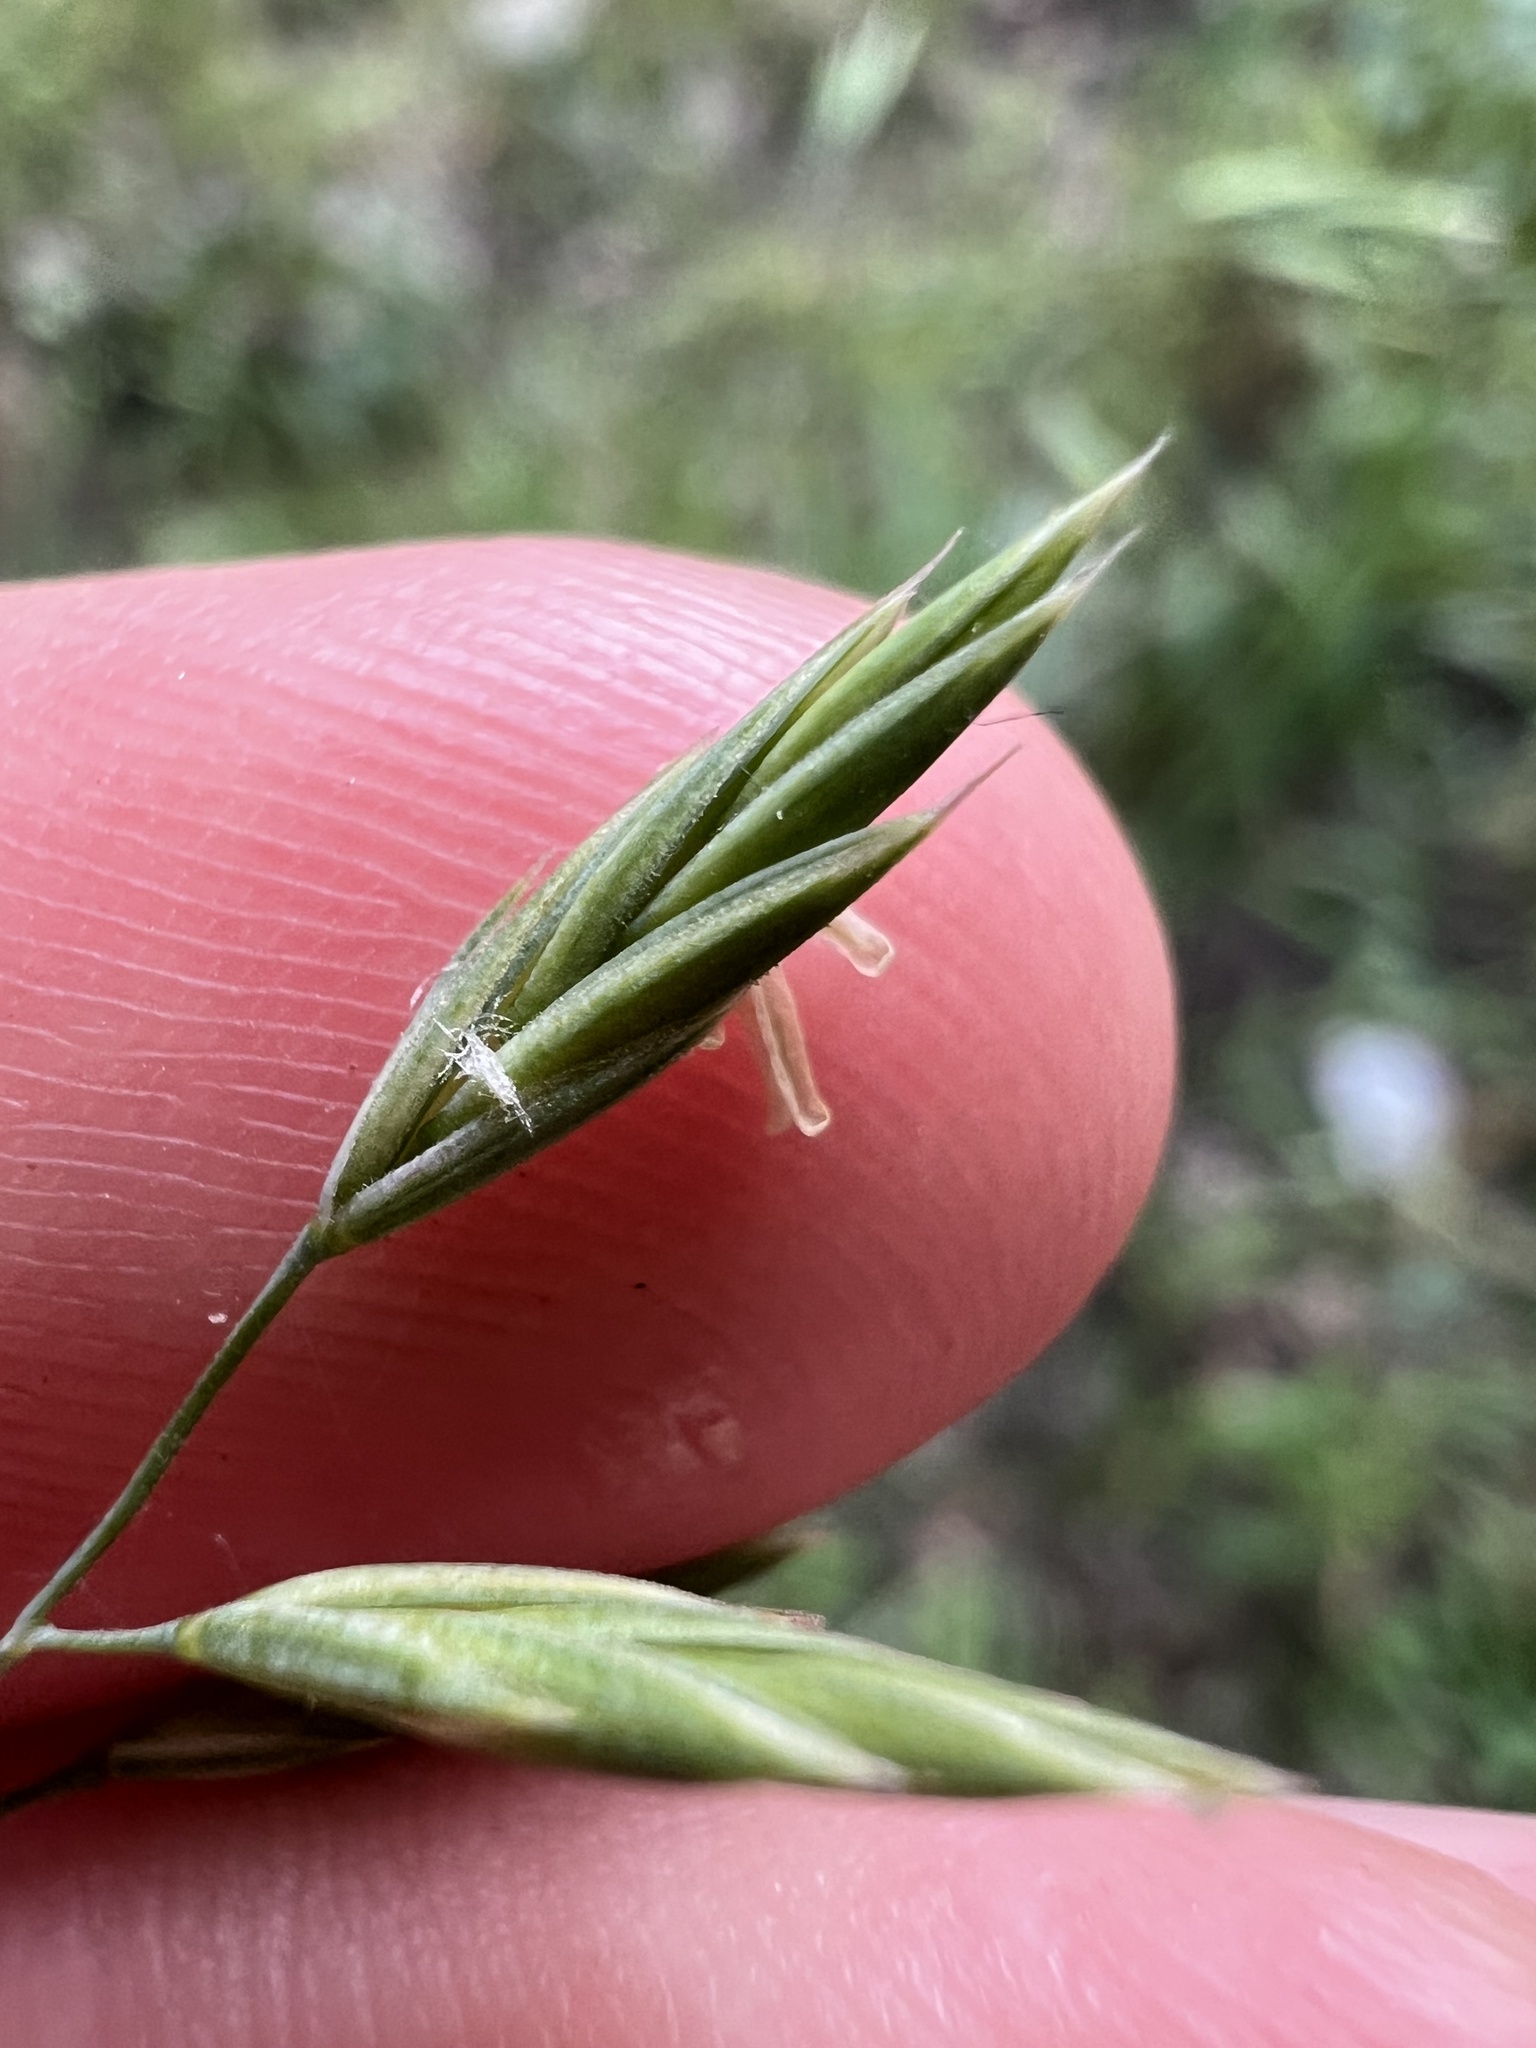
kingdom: Plantae
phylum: Tracheophyta
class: Liliopsida
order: Poales
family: Poaceae
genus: Festuca
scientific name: Festuca versuta
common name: Texas fescue
